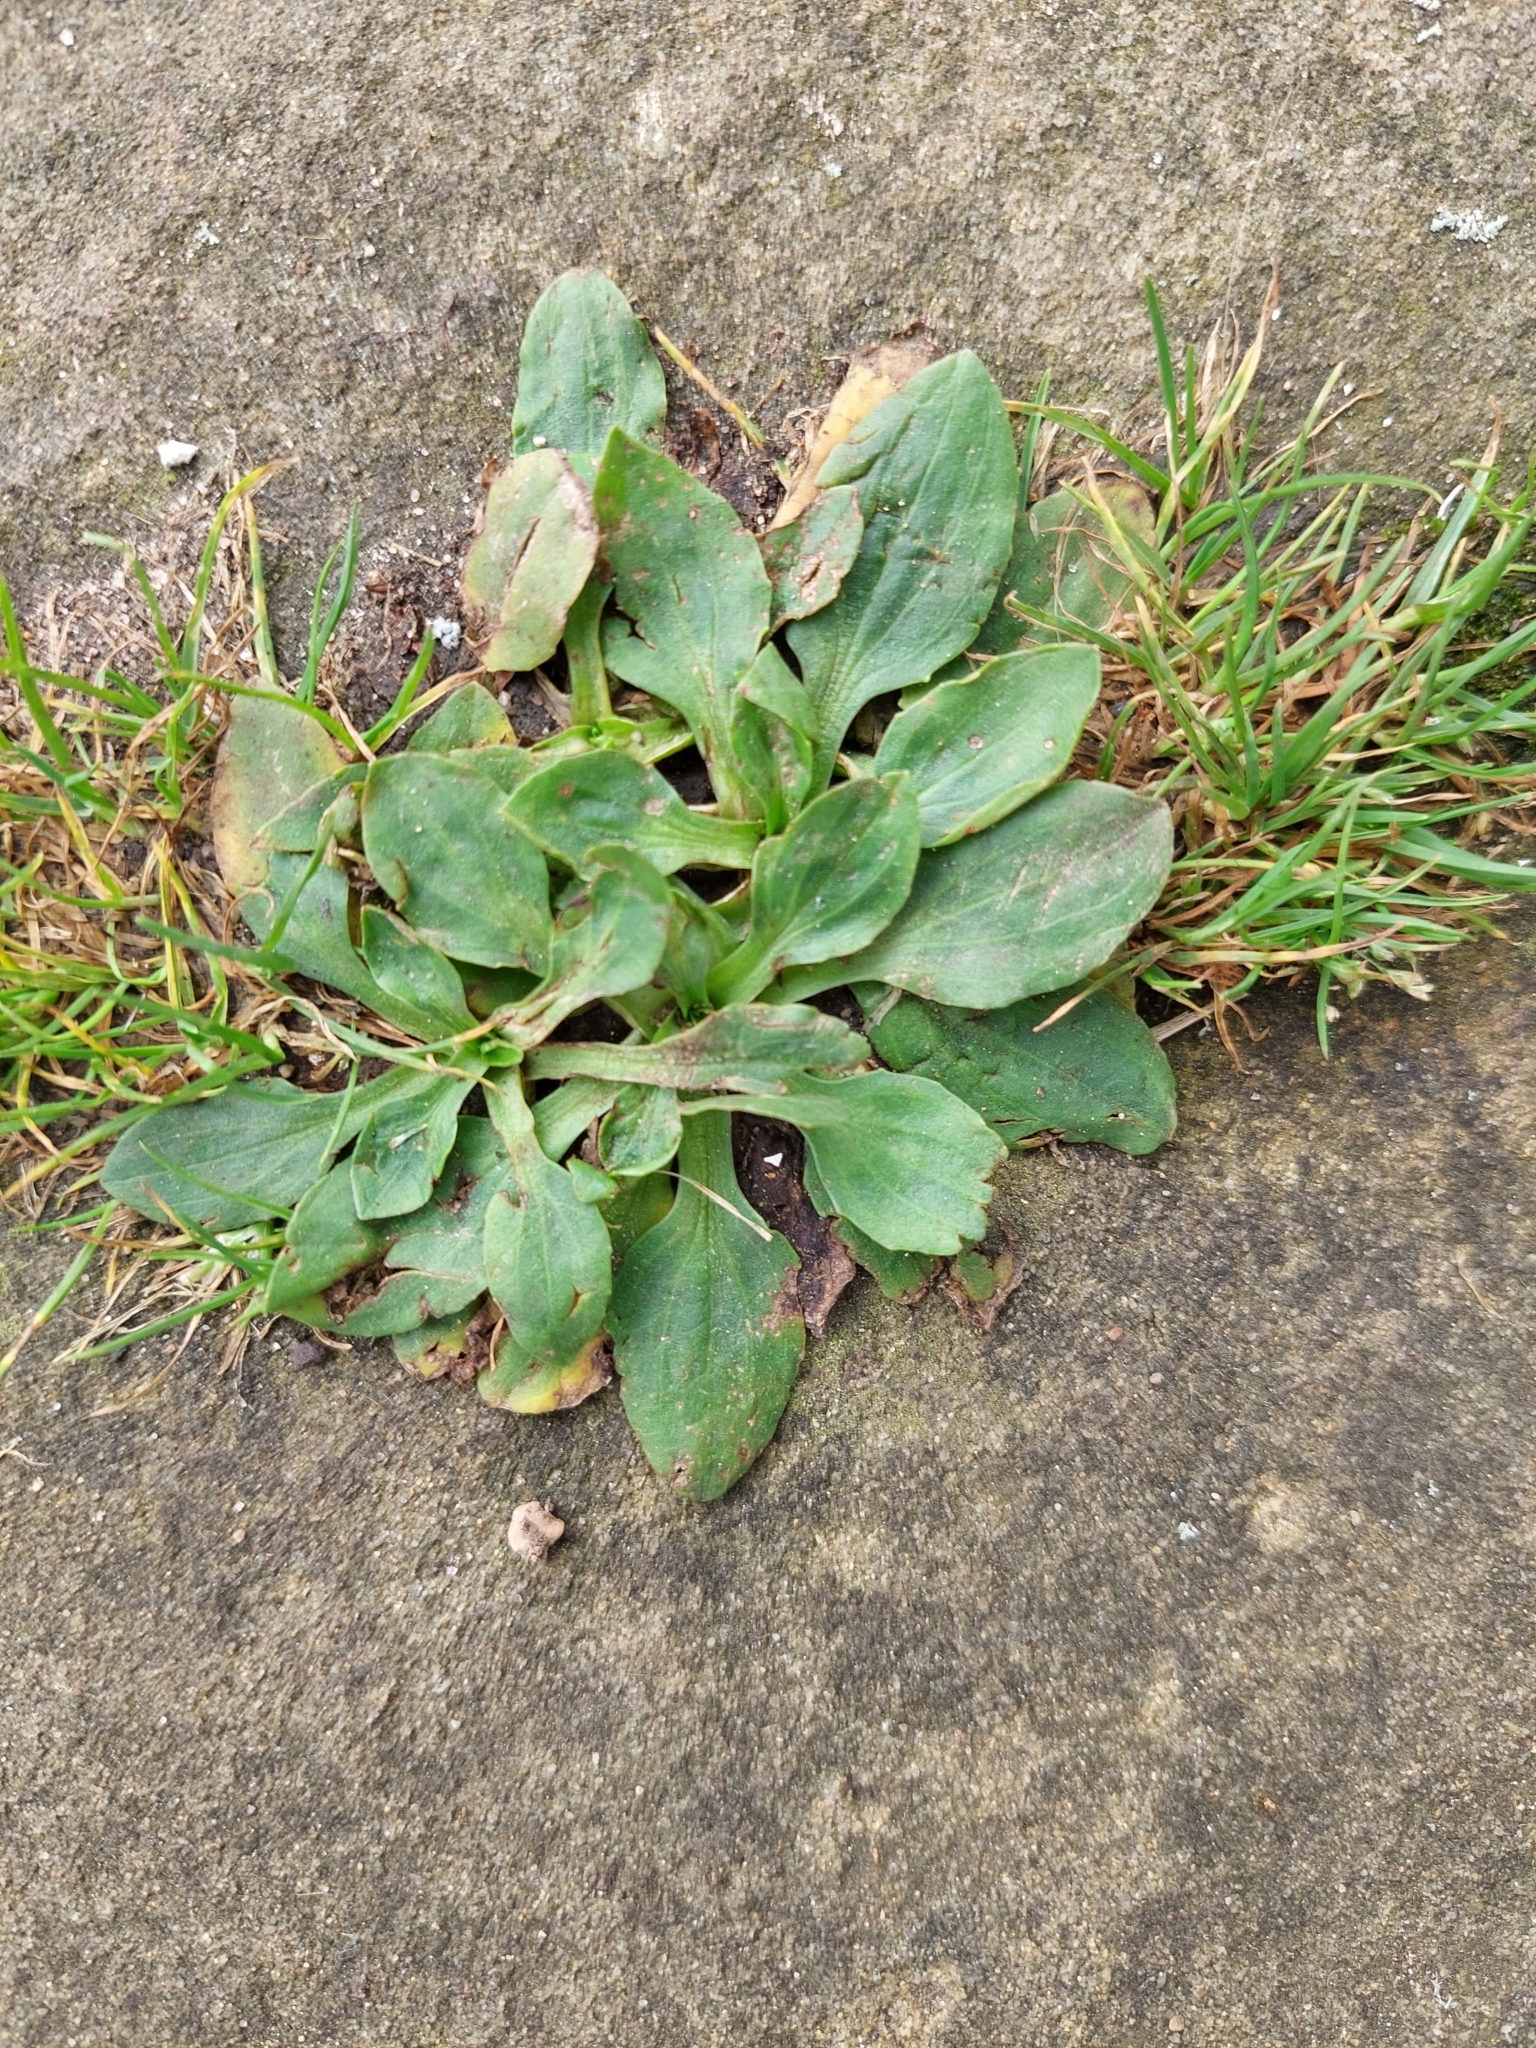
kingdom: Plantae
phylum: Tracheophyta
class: Magnoliopsida
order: Lamiales
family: Plantaginaceae
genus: Plantago
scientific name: Plantago major
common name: Common plantain
